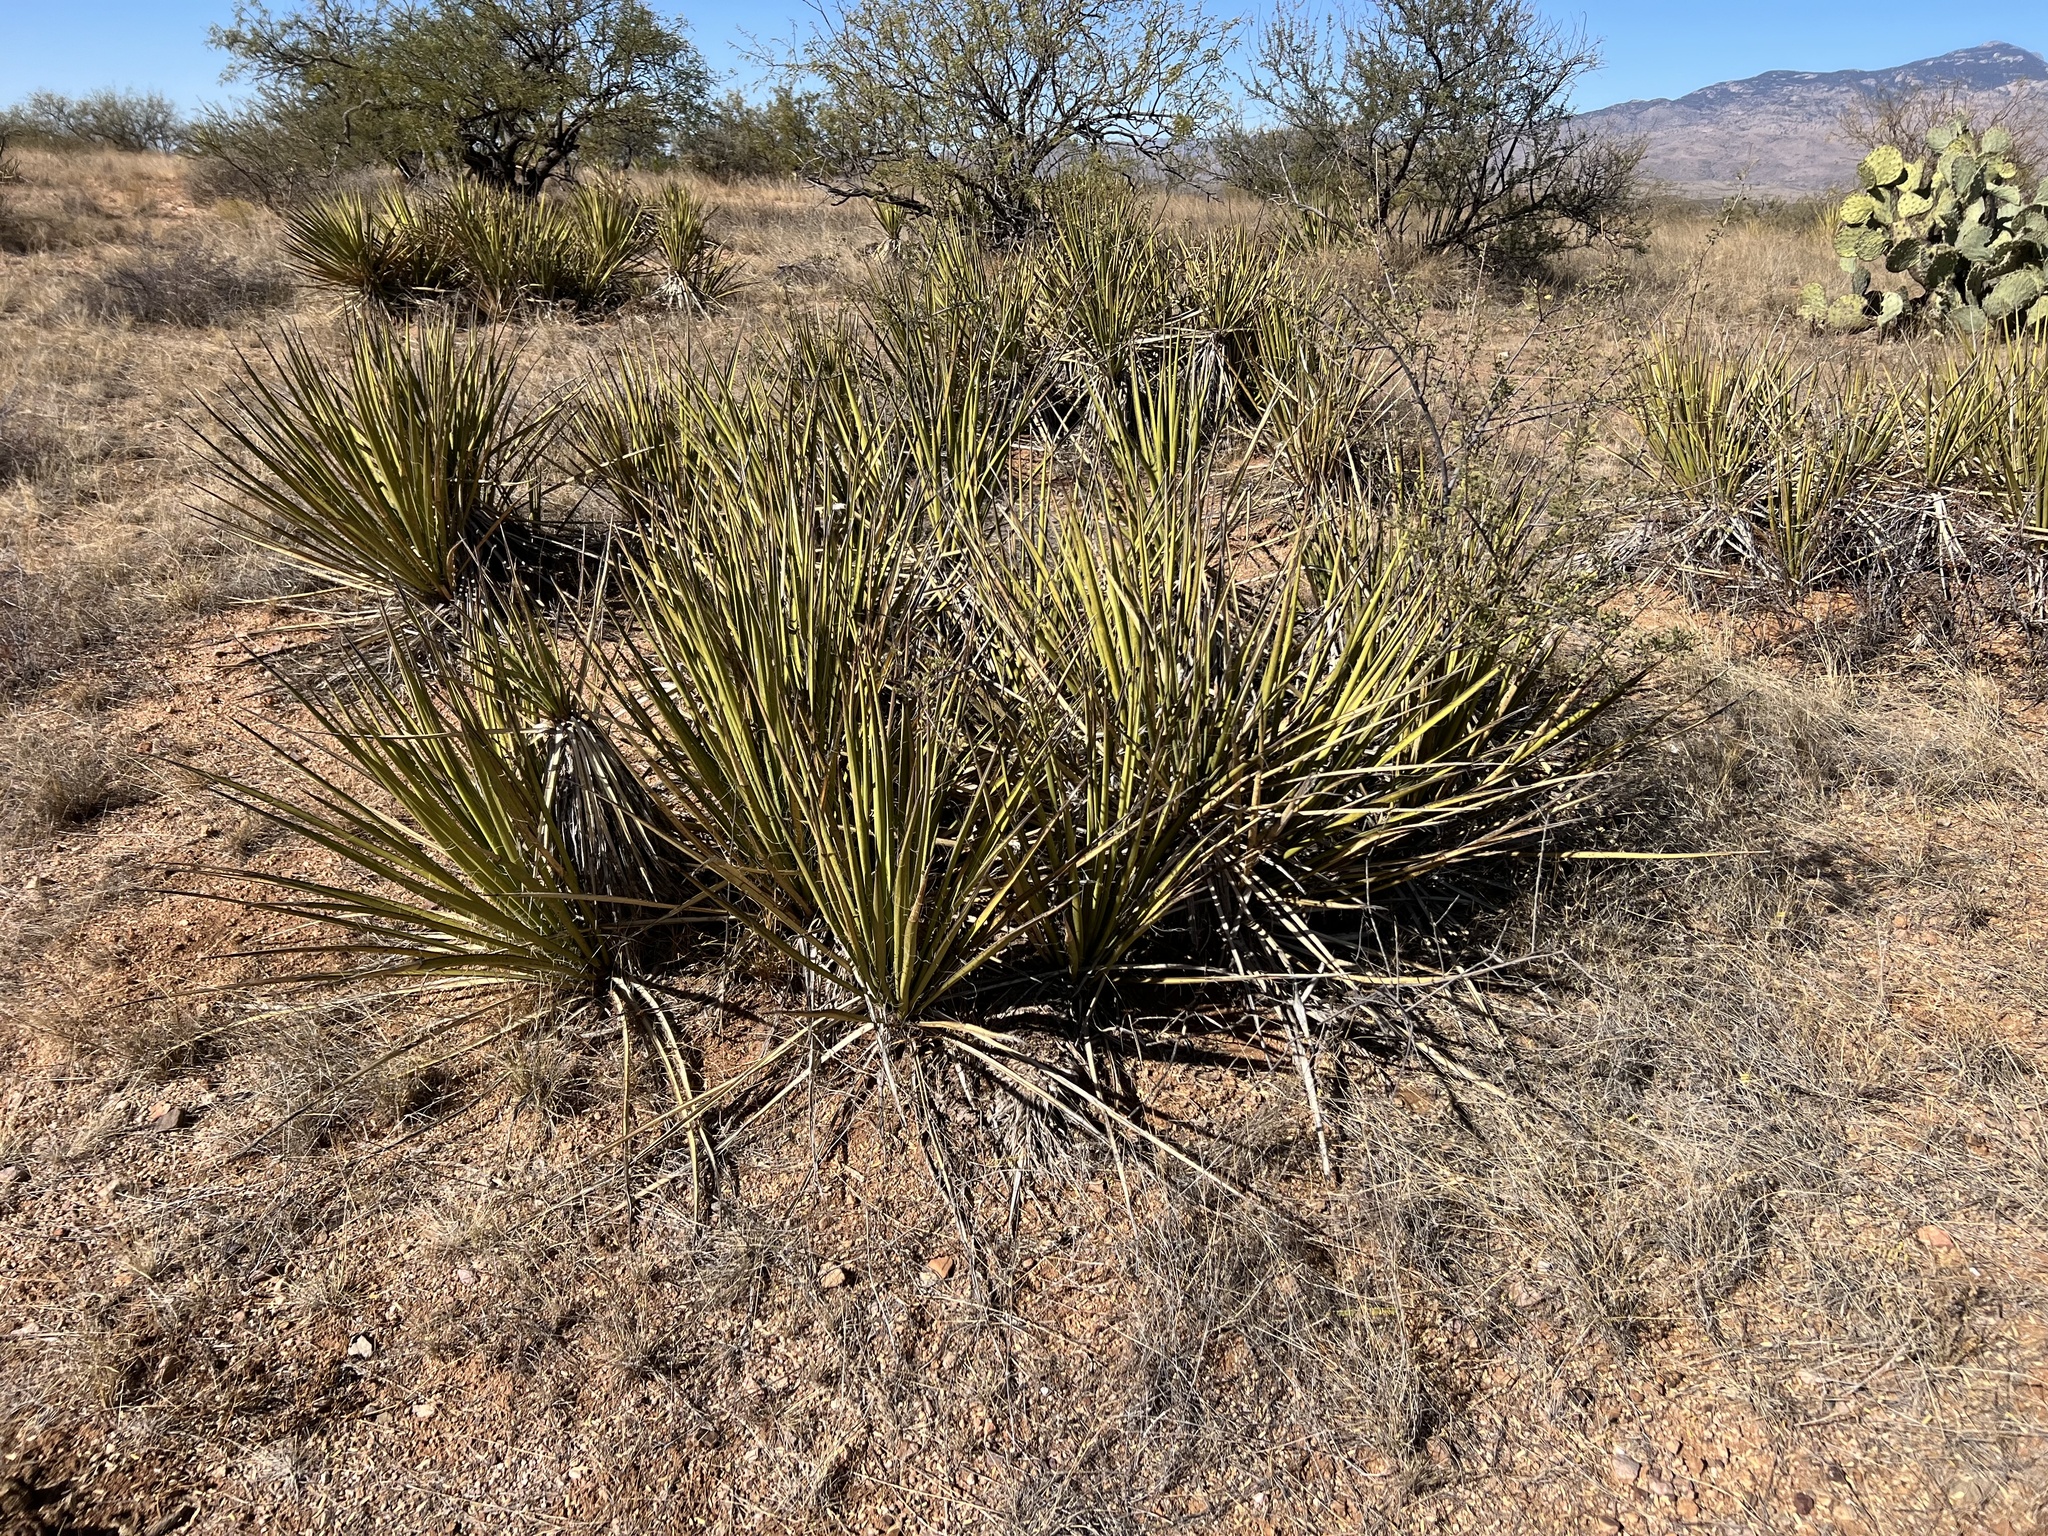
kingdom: Plantae
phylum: Tracheophyta
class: Liliopsida
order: Asparagales
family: Asparagaceae
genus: Yucca
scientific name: Yucca baccata
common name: Banana yucca
